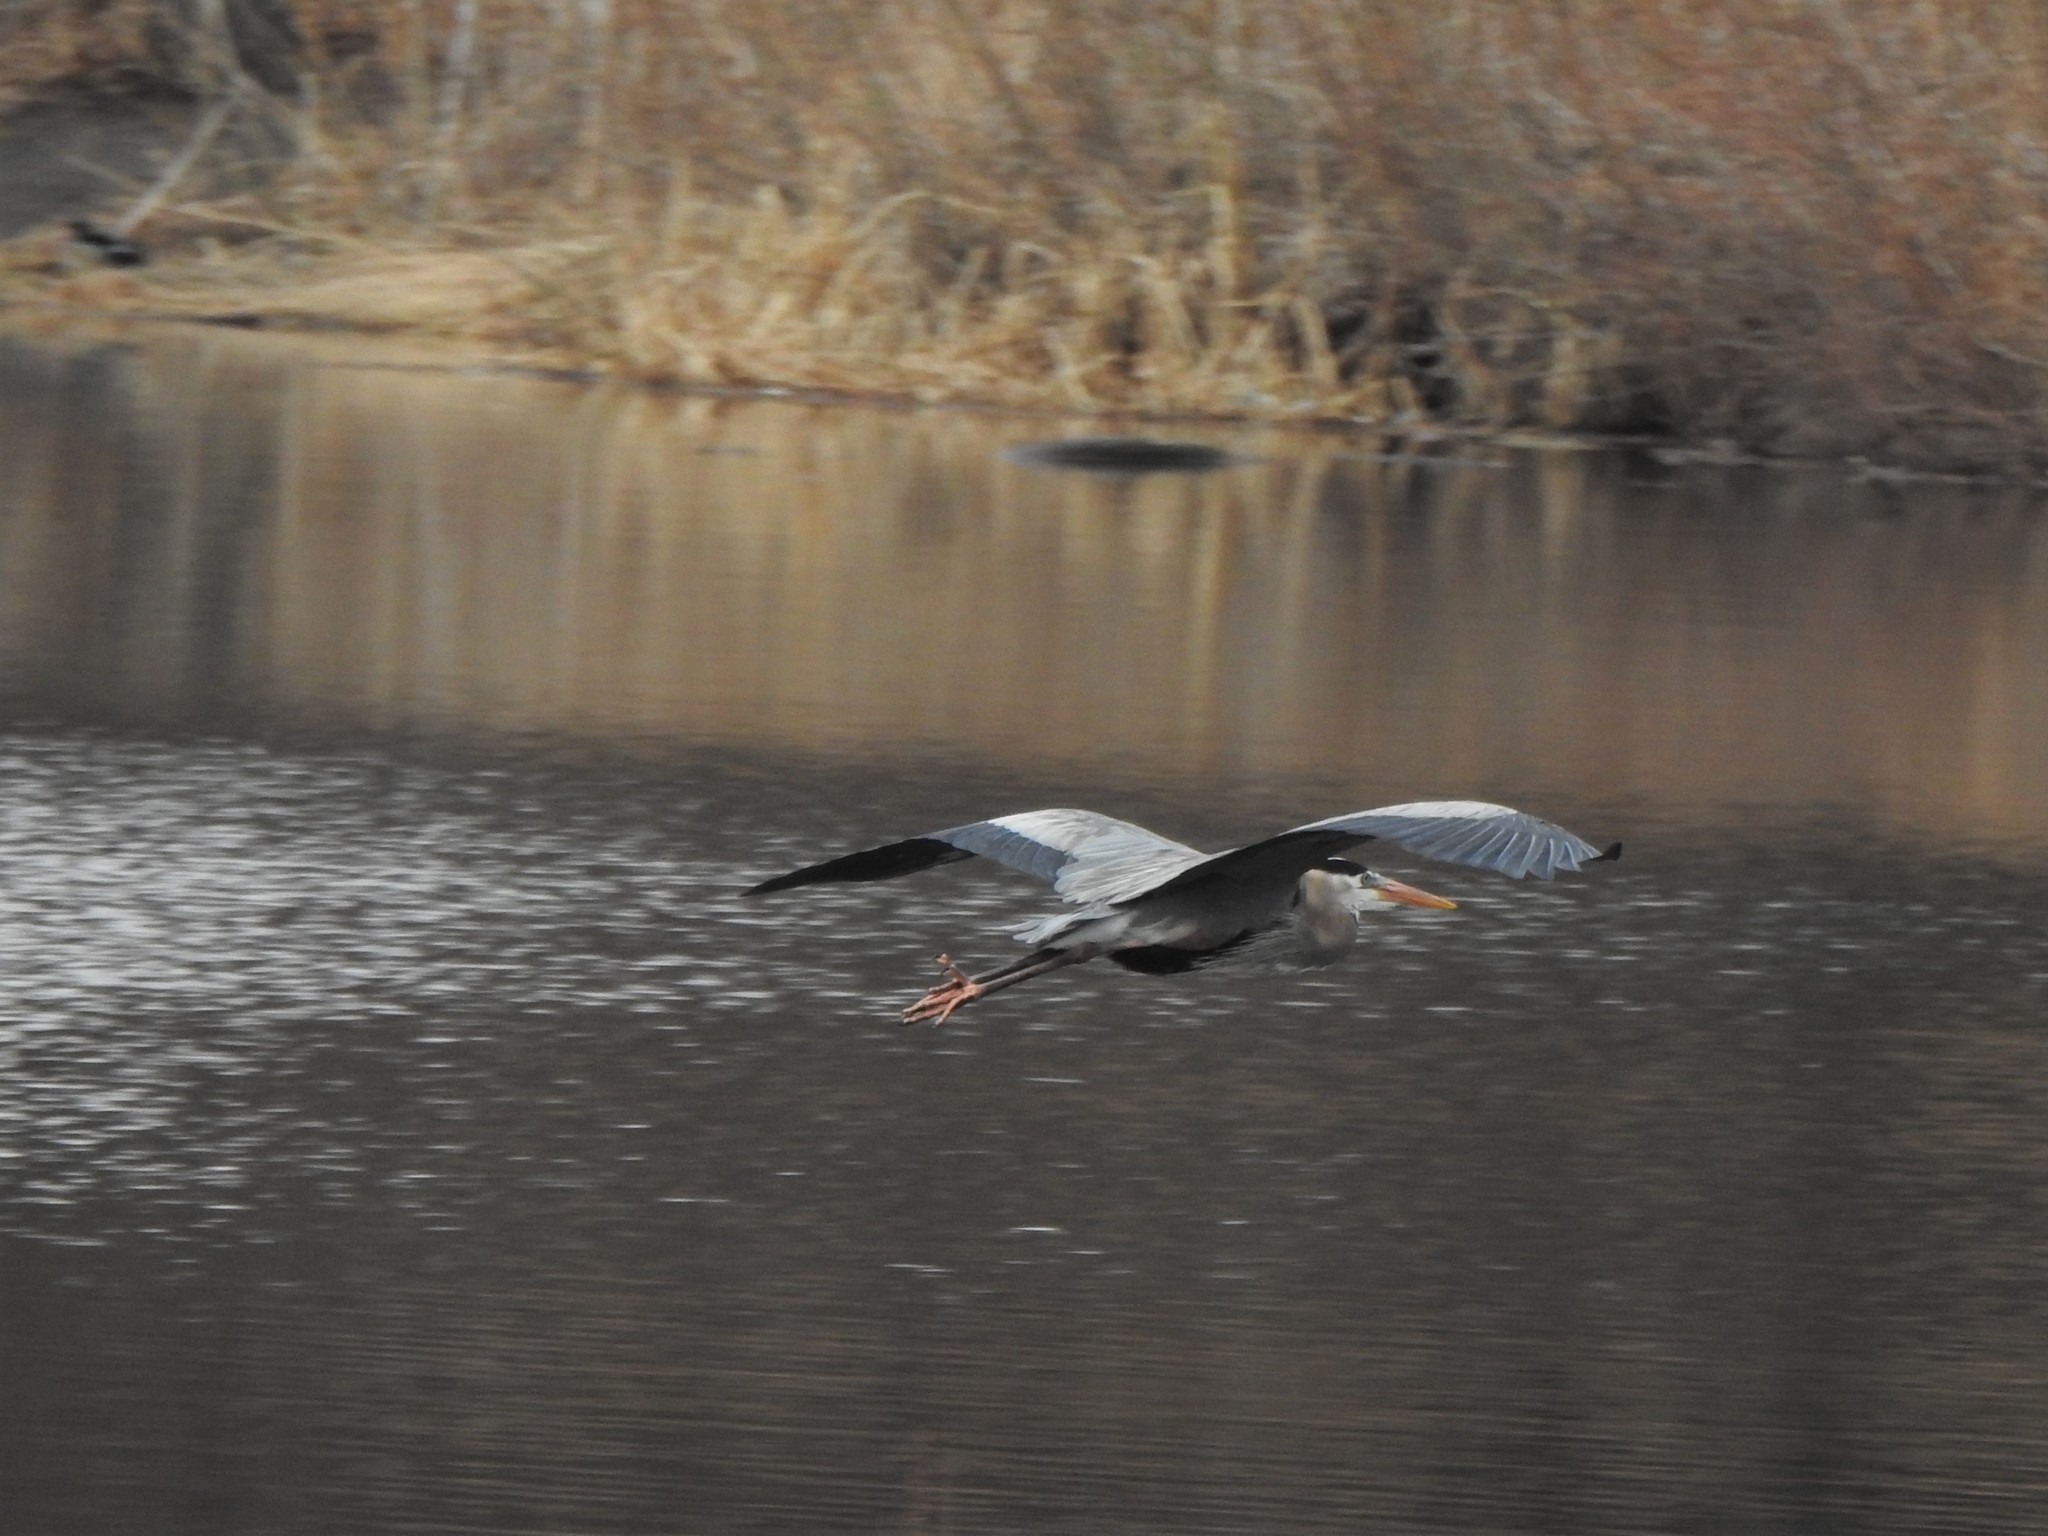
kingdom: Animalia
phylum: Chordata
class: Aves
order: Pelecaniformes
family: Ardeidae
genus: Ardea
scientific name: Ardea herodias
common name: Great blue heron
